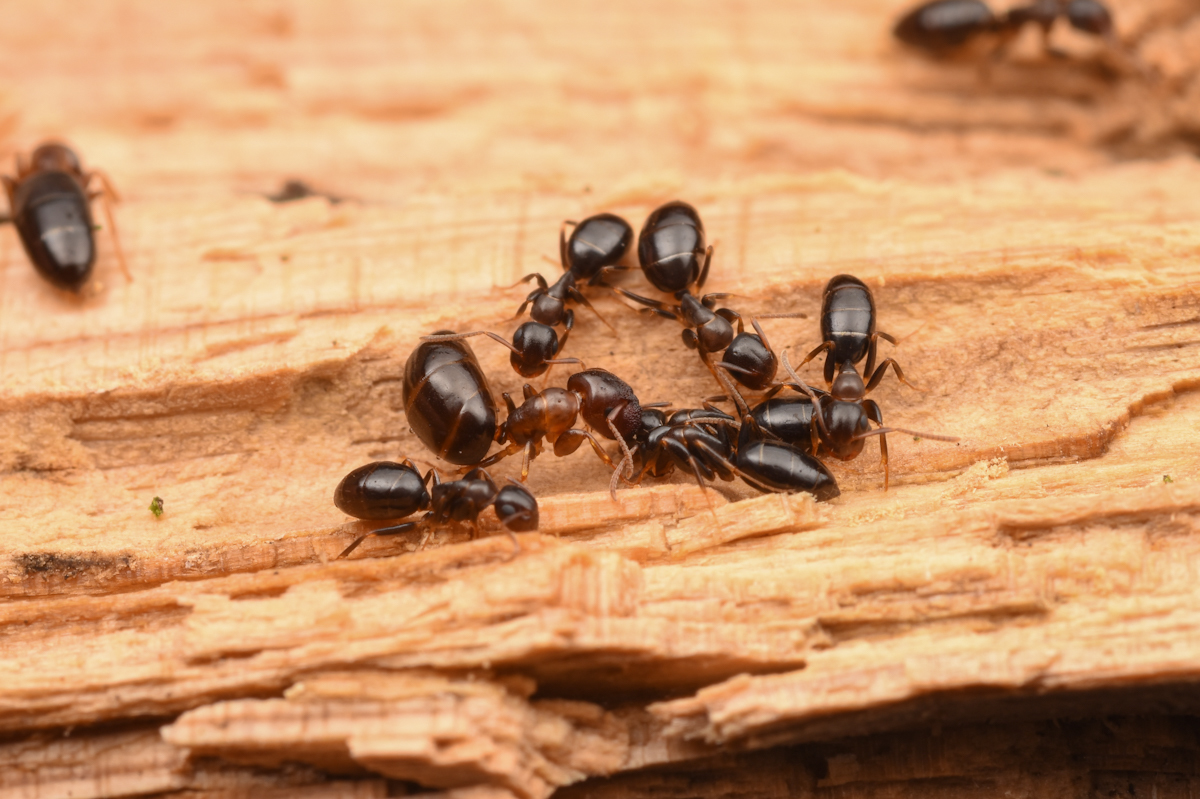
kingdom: Animalia
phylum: Arthropoda
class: Insecta
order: Hymenoptera
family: Formicidae
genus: Colobopsis
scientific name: Colobopsis
